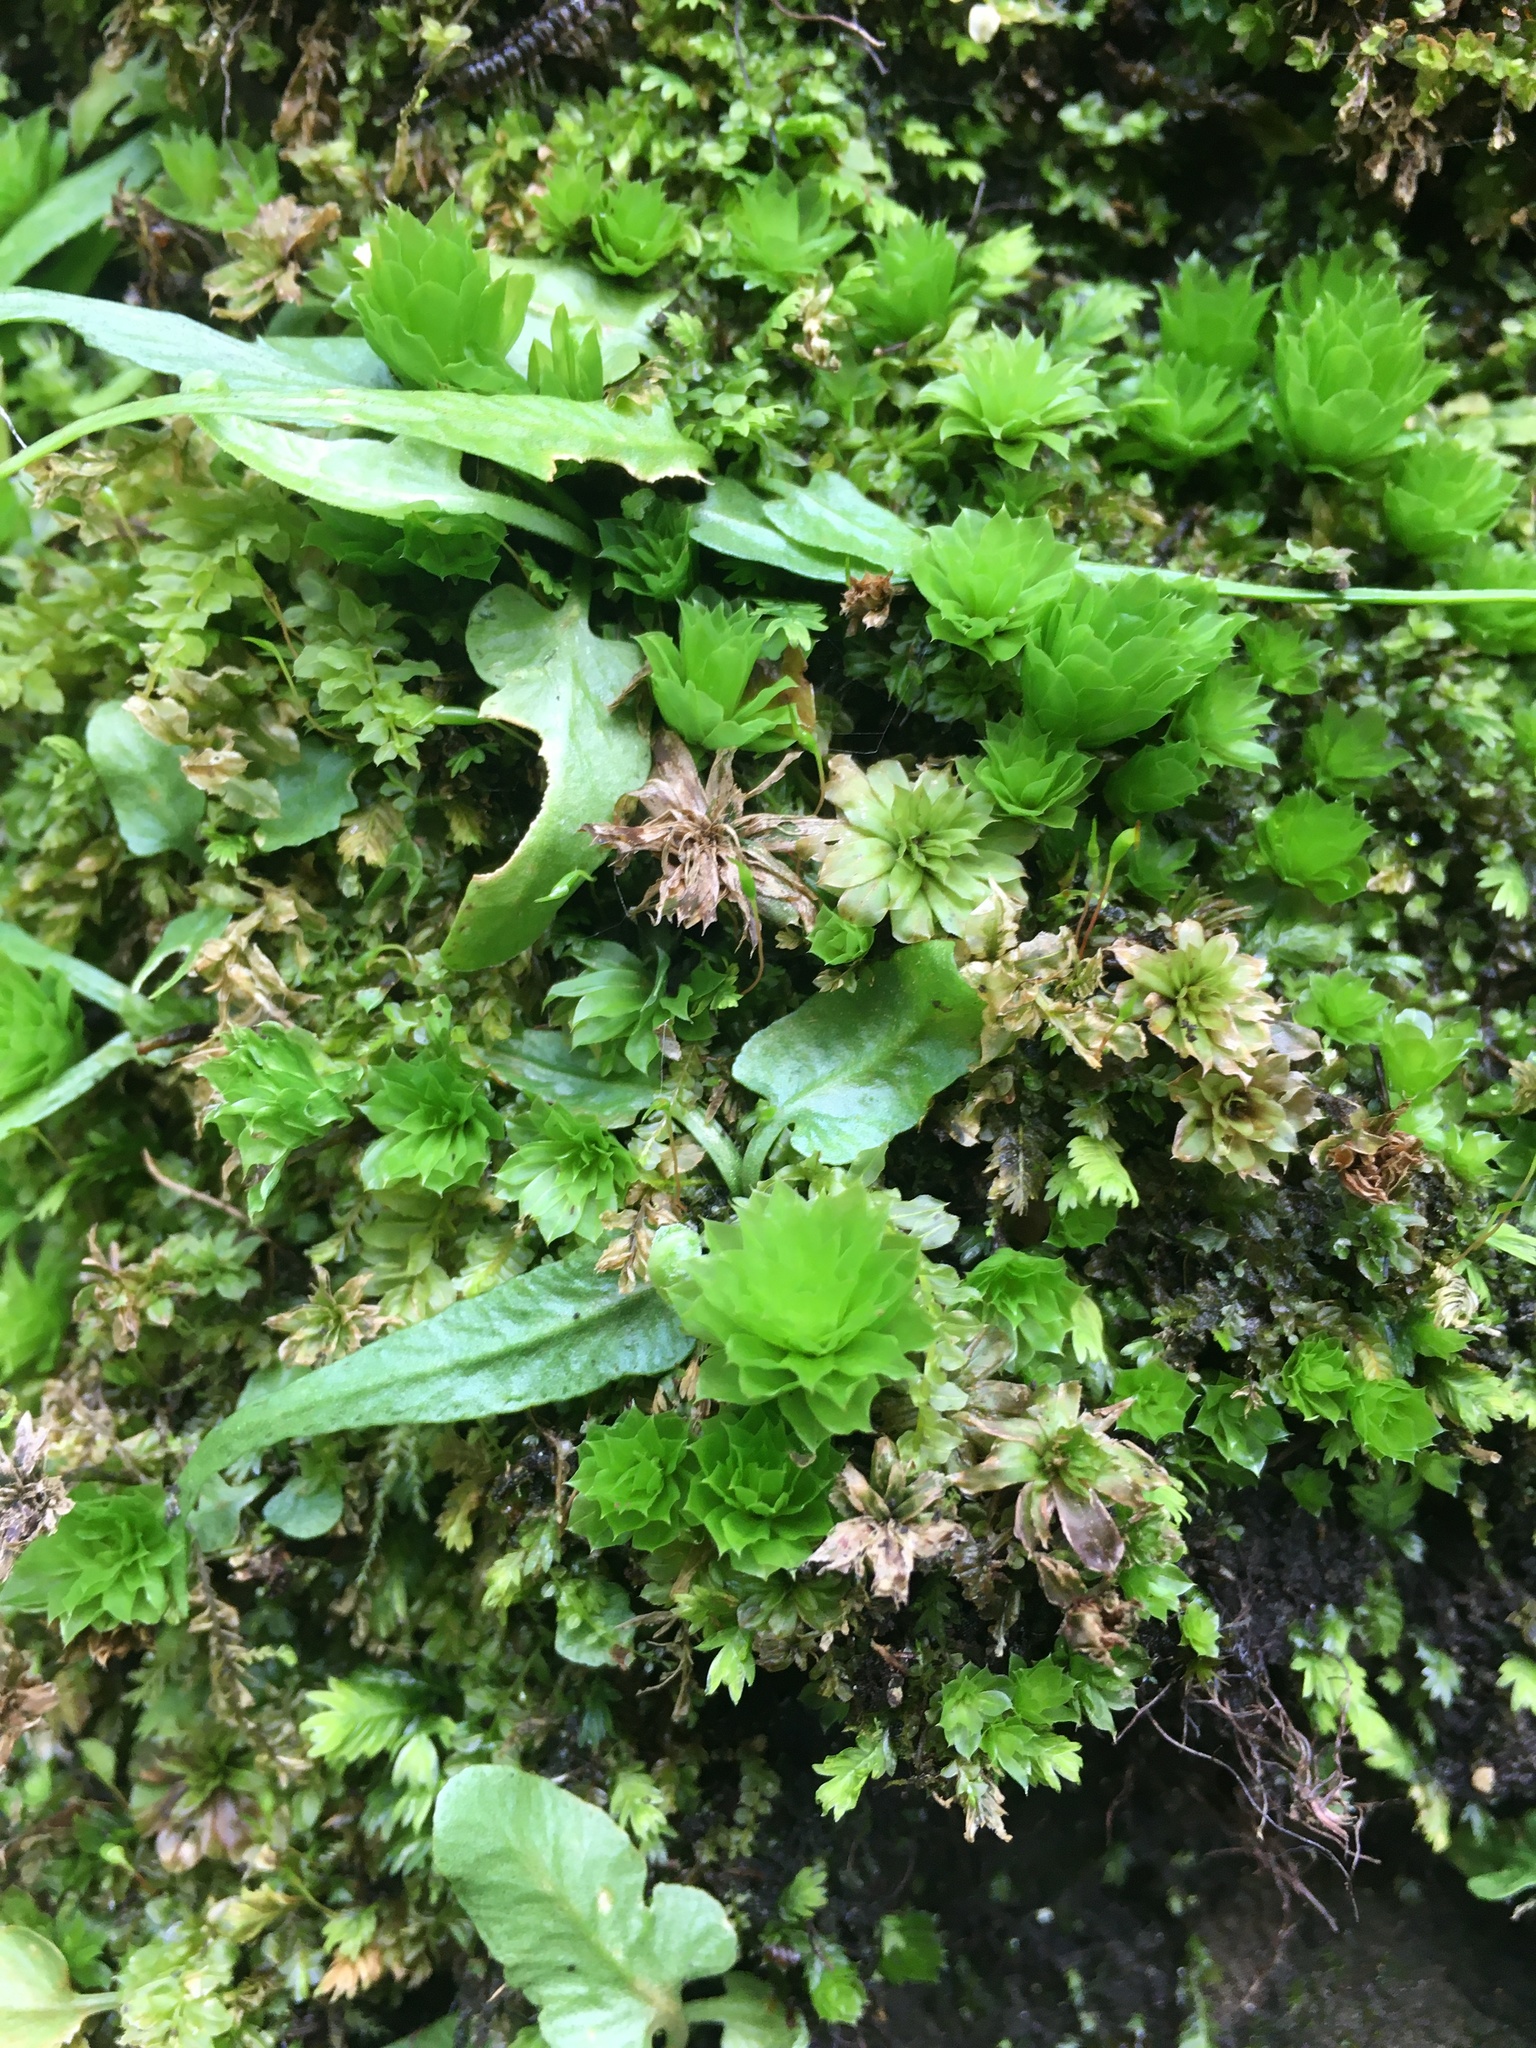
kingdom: Plantae
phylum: Tracheophyta
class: Polypodiopsida
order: Polypodiales
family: Aspleniaceae
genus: Asplenium
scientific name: Asplenium rhizophyllum
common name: Walking fern
